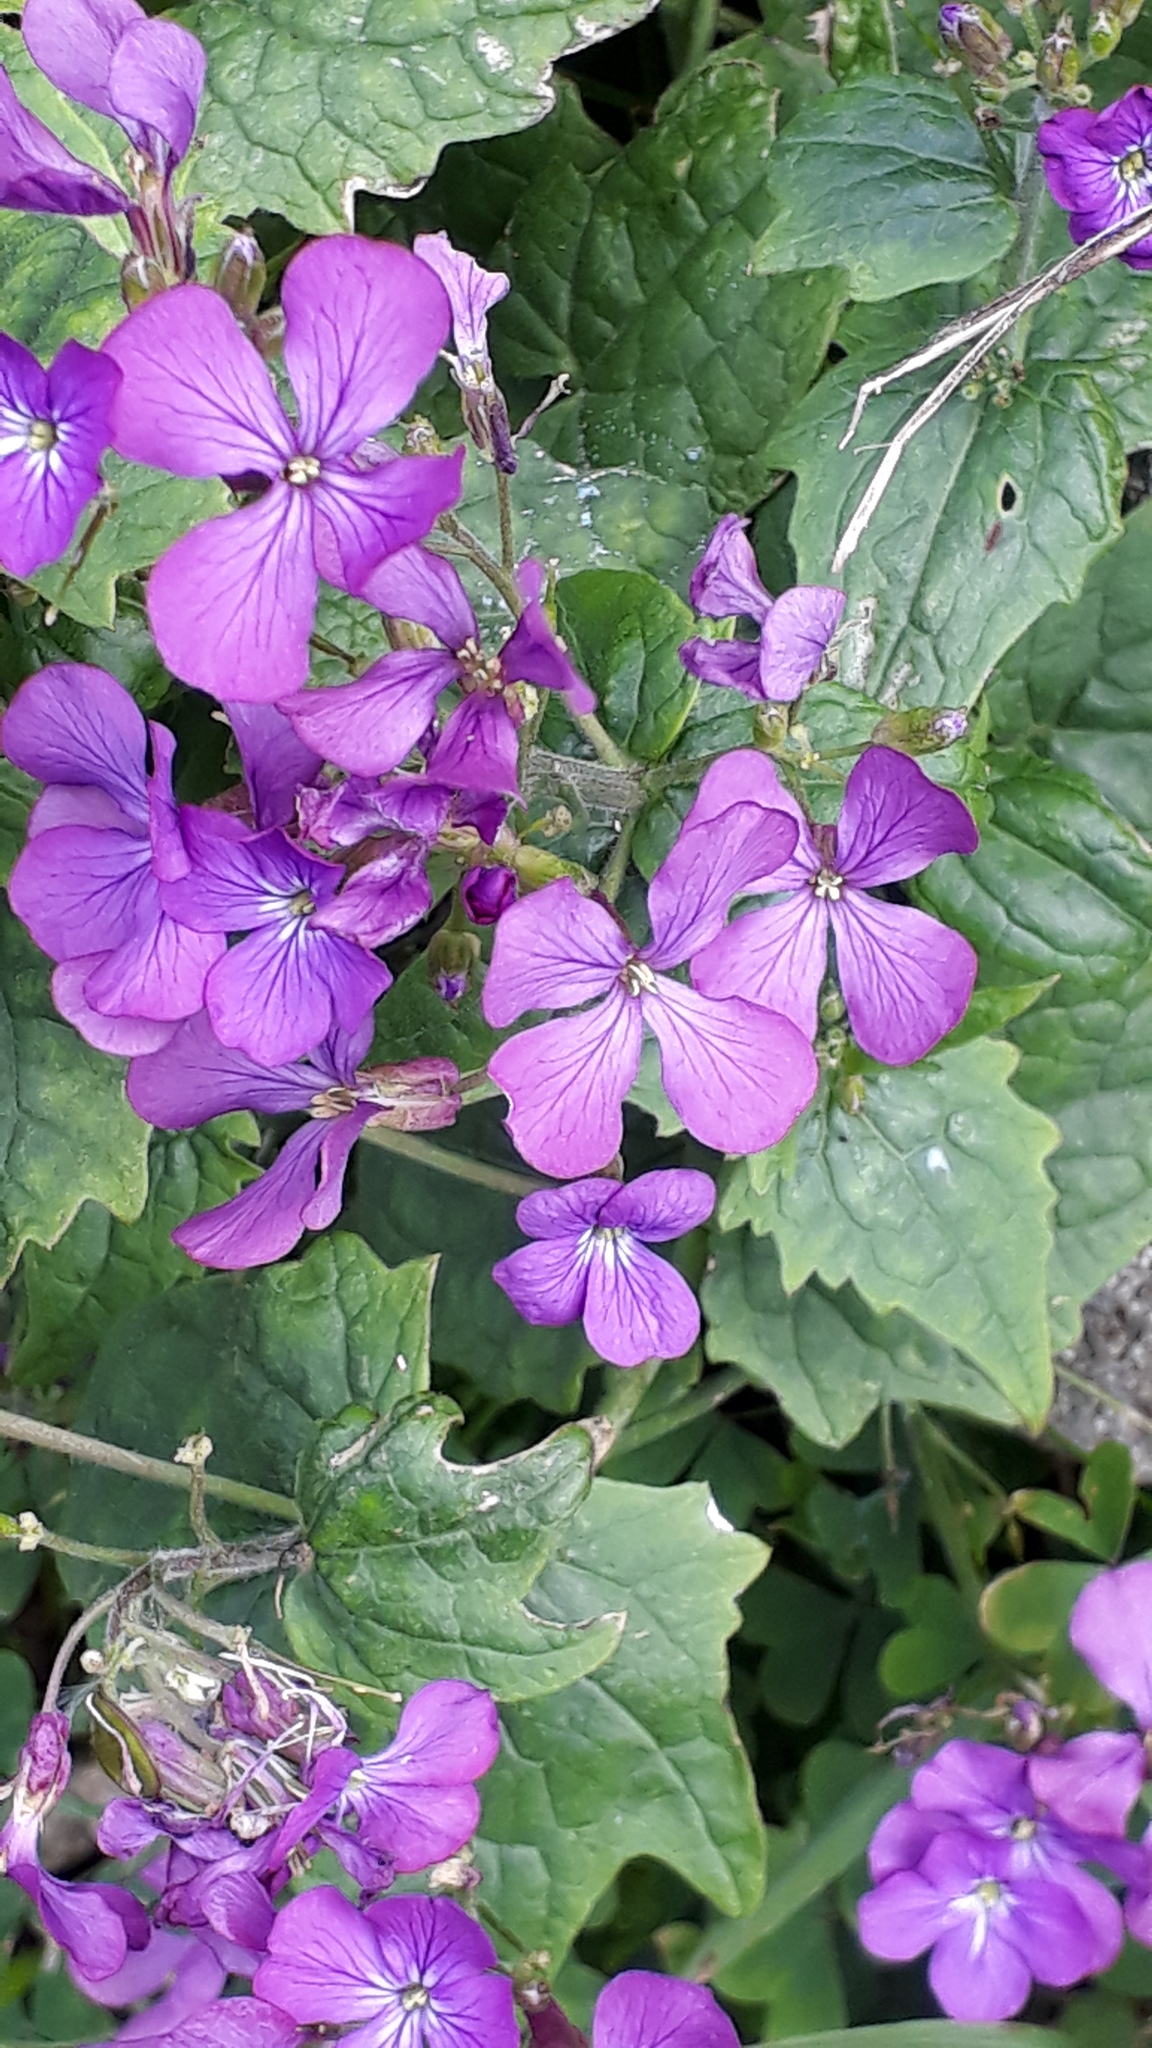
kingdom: Plantae
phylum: Tracheophyta
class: Magnoliopsida
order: Brassicales
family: Brassicaceae
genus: Lunaria
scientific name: Lunaria annua
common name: Honesty
